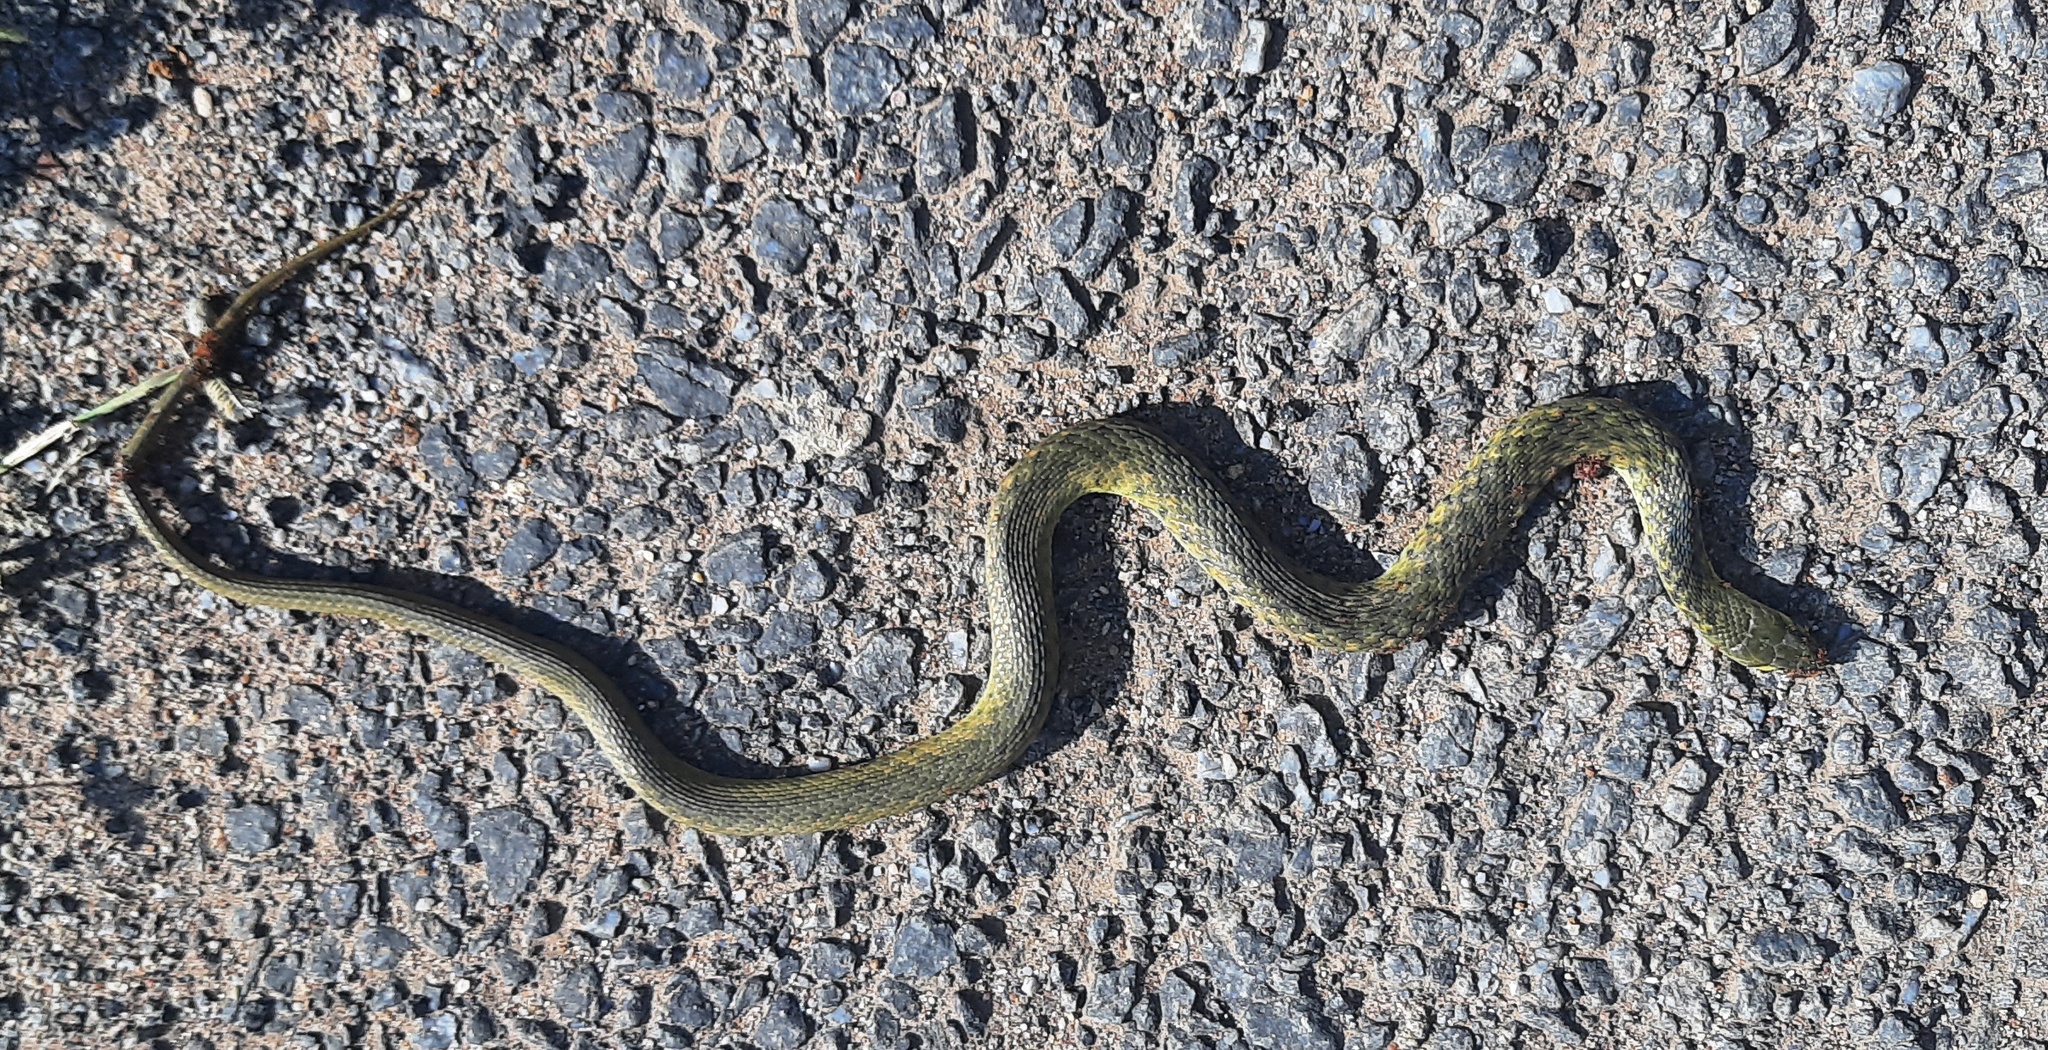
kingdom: Animalia
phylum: Chordata
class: Squamata
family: Colubridae
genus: Fowlea
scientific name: Fowlea piscator
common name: Asiatic water snake
